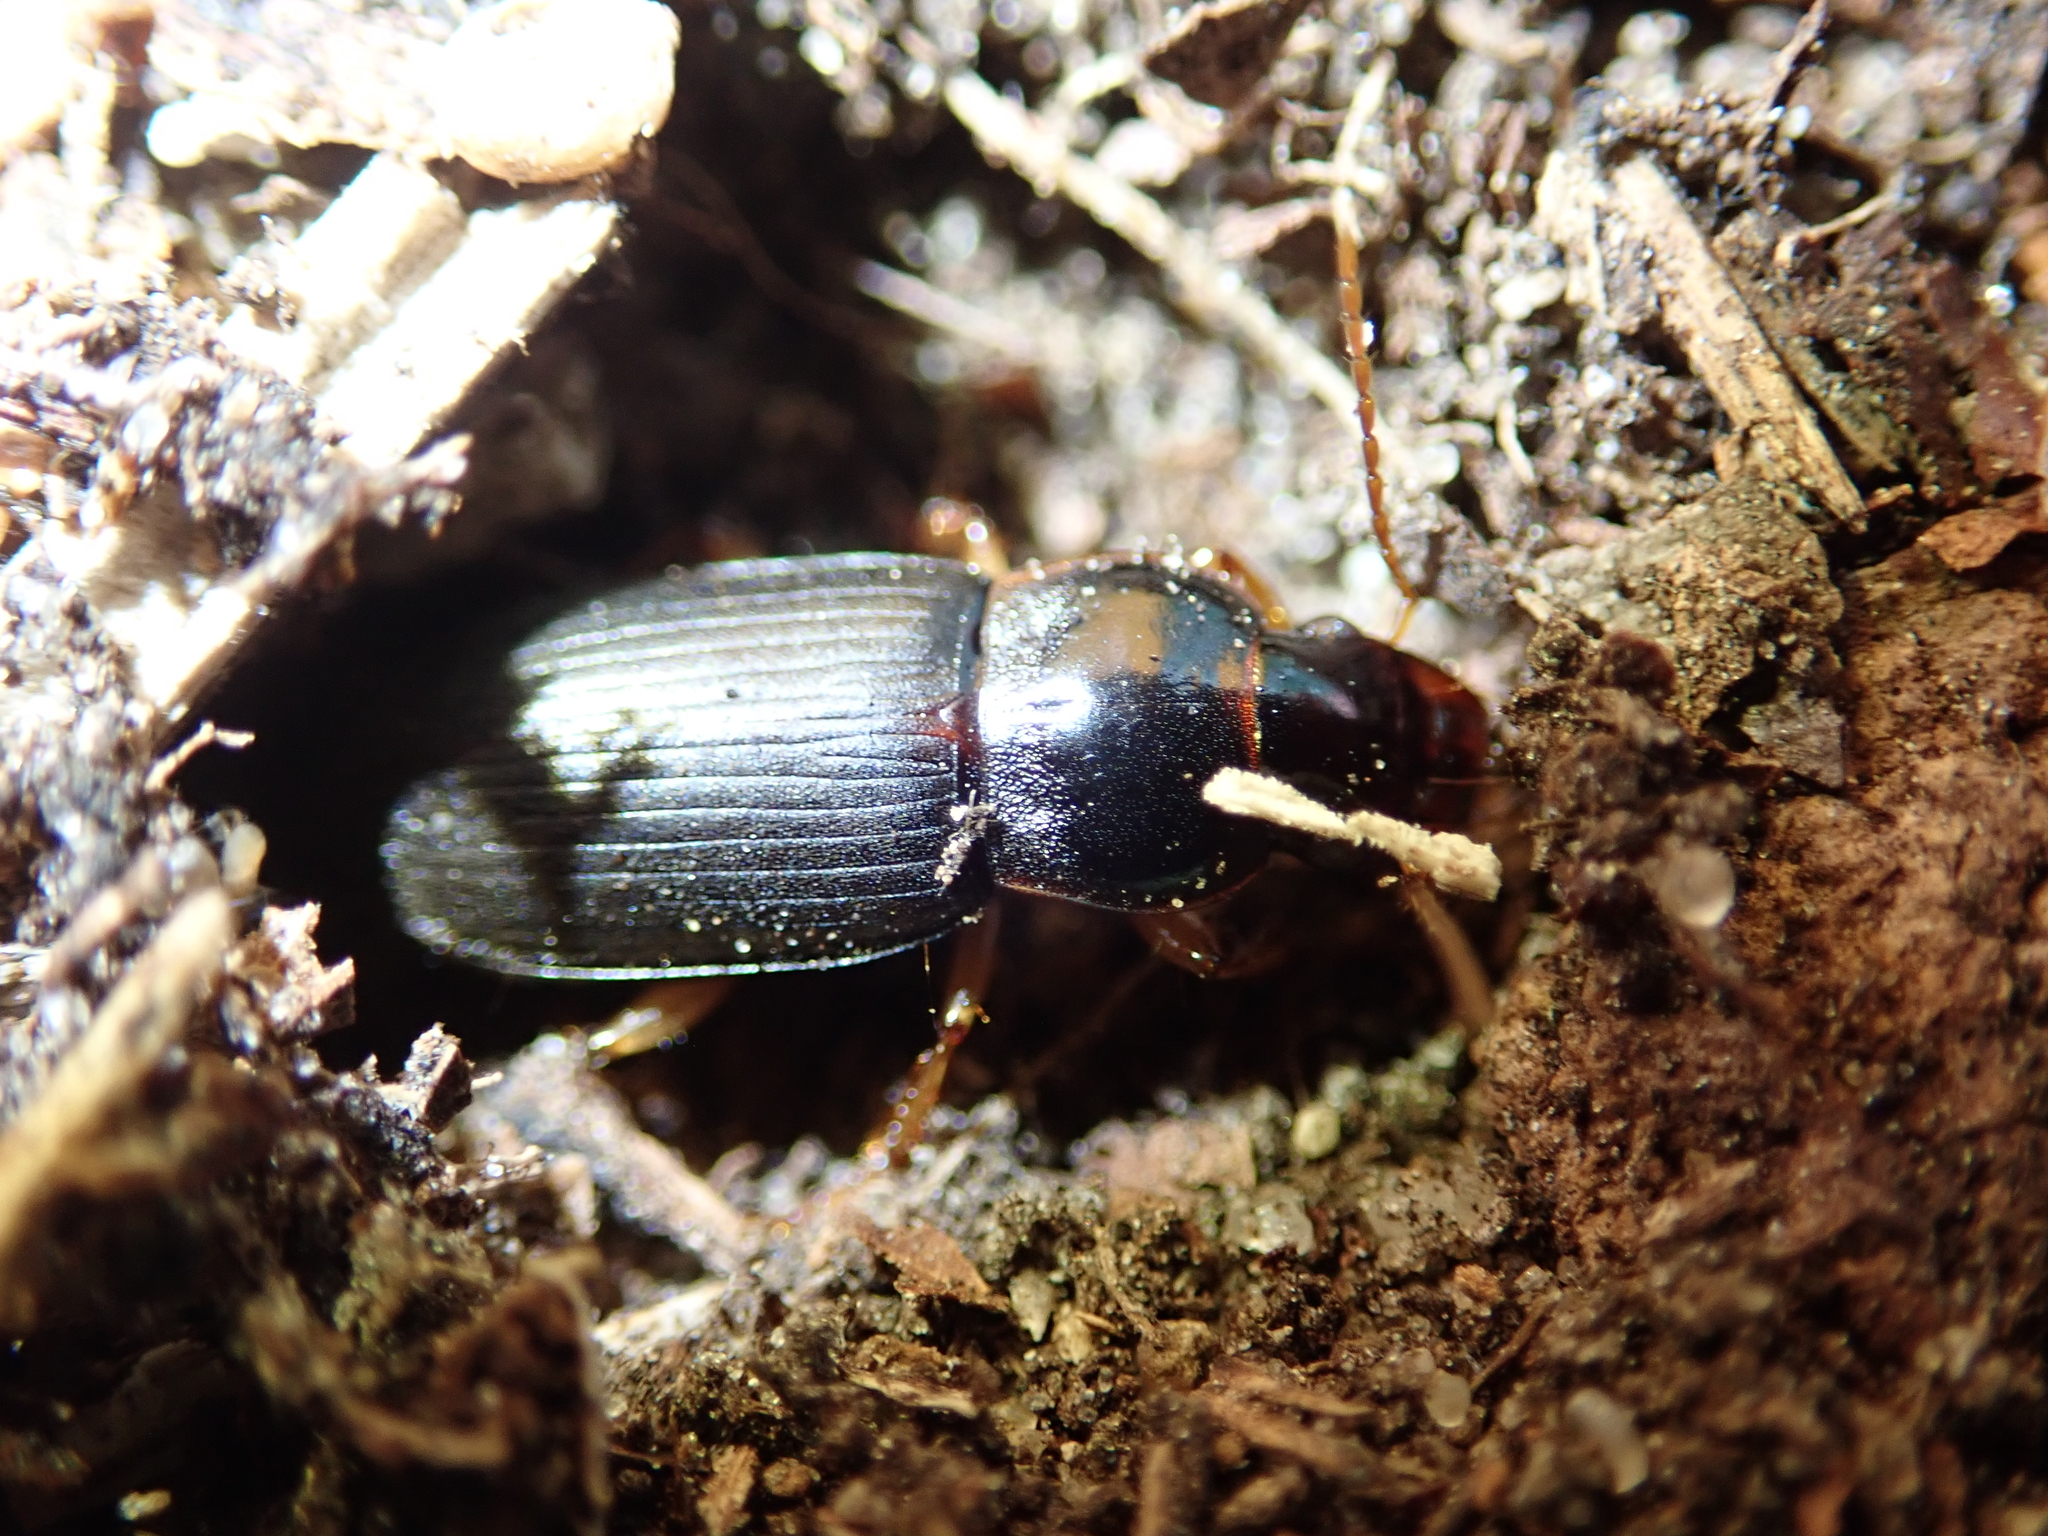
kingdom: Animalia
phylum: Arthropoda
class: Insecta
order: Coleoptera
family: Carabidae
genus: Harpalus
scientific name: Harpalus griseus
